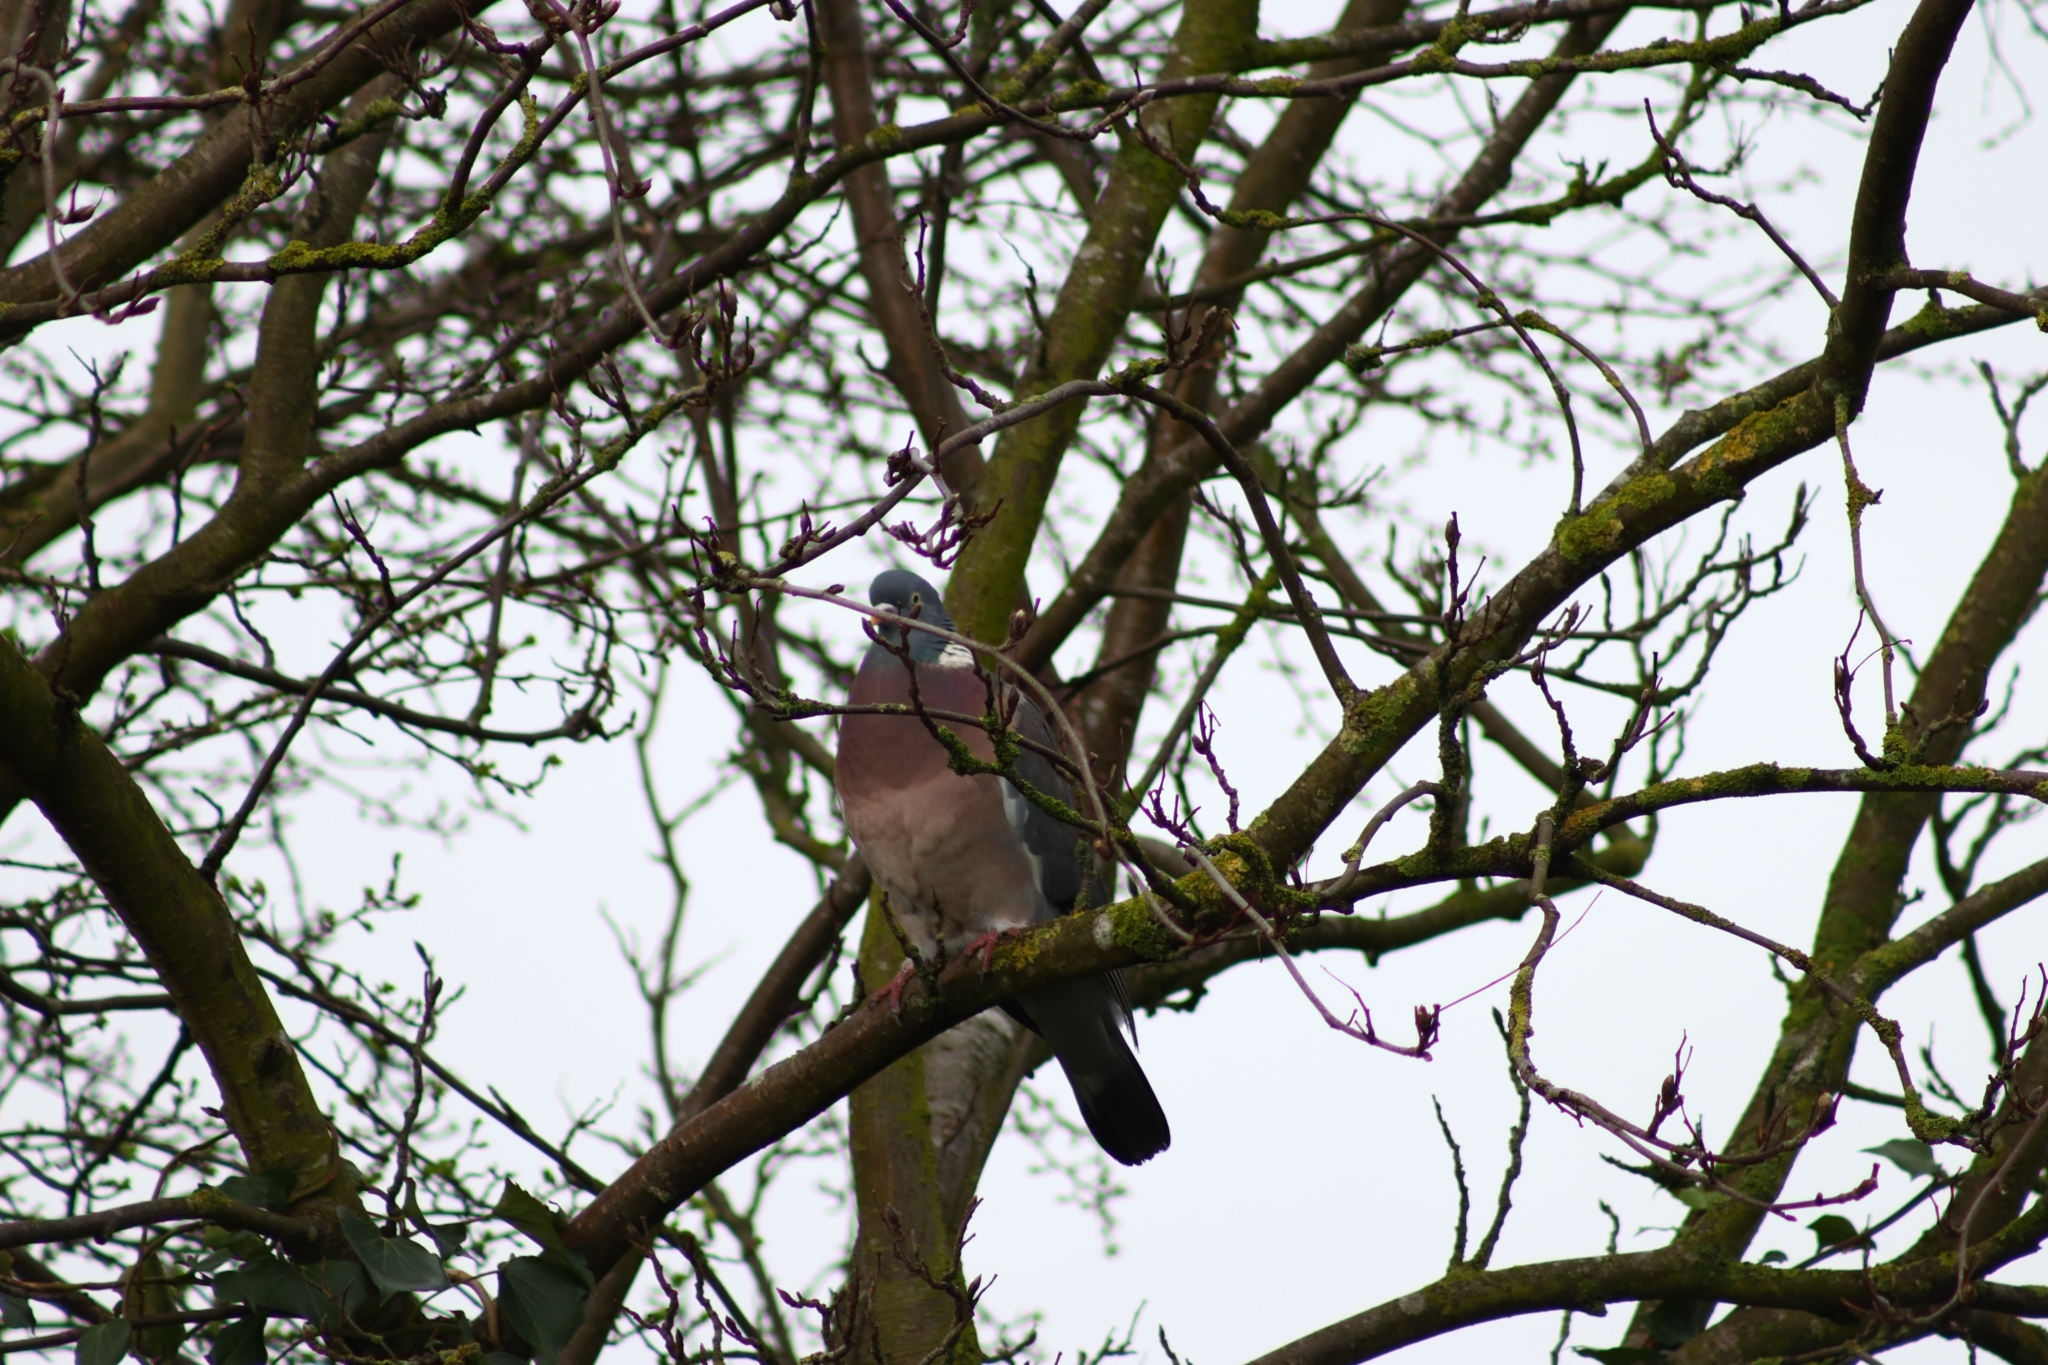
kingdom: Animalia
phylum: Chordata
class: Aves
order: Columbiformes
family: Columbidae
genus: Columba
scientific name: Columba palumbus
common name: Common wood pigeon
